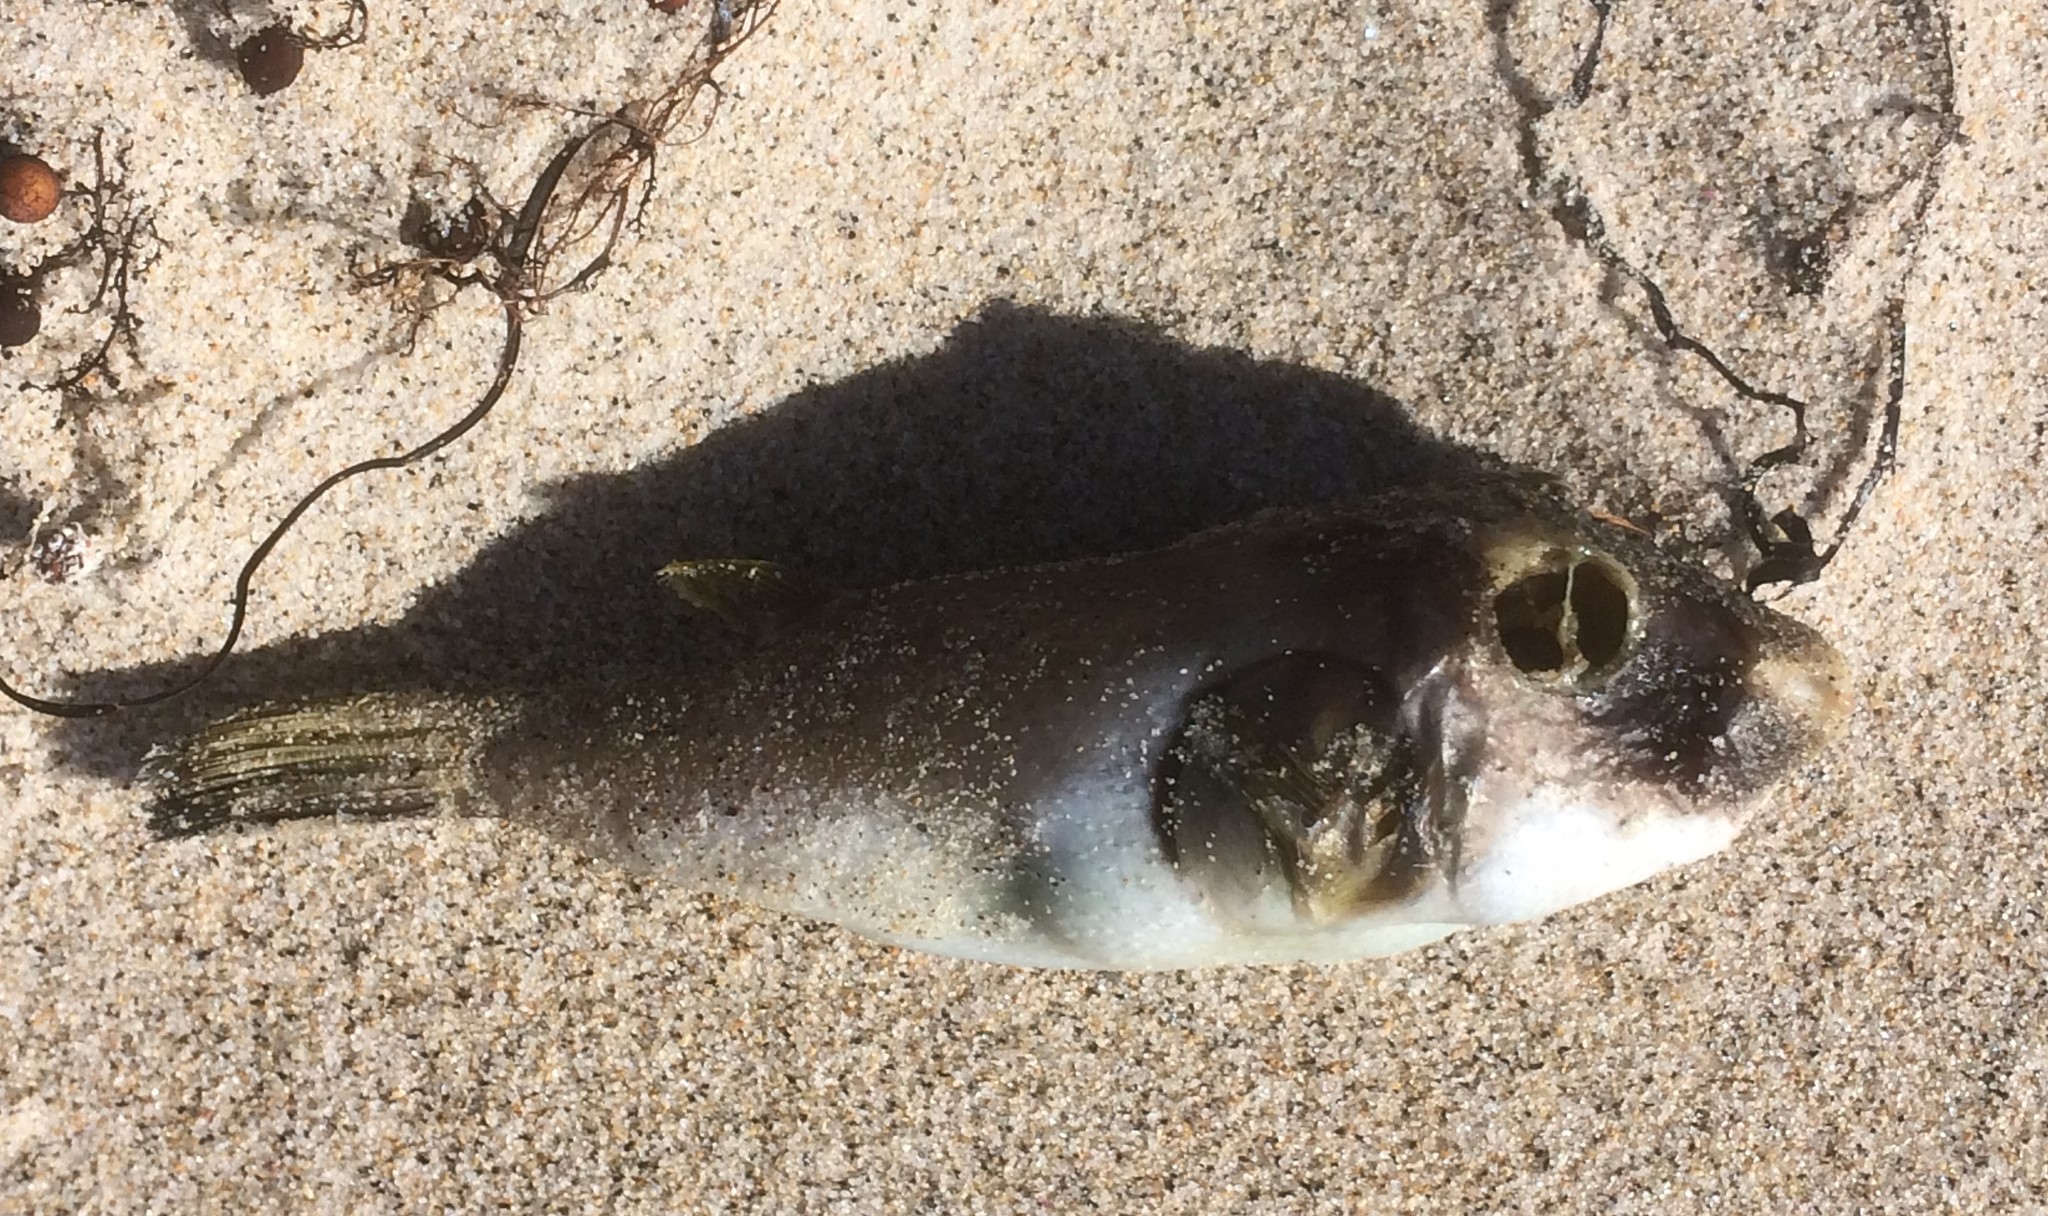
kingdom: Animalia
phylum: Chordata
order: Tetraodontiformes
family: Tetraodontidae
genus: Omegophora
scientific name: Omegophora armilla
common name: Ringed pufferfish
